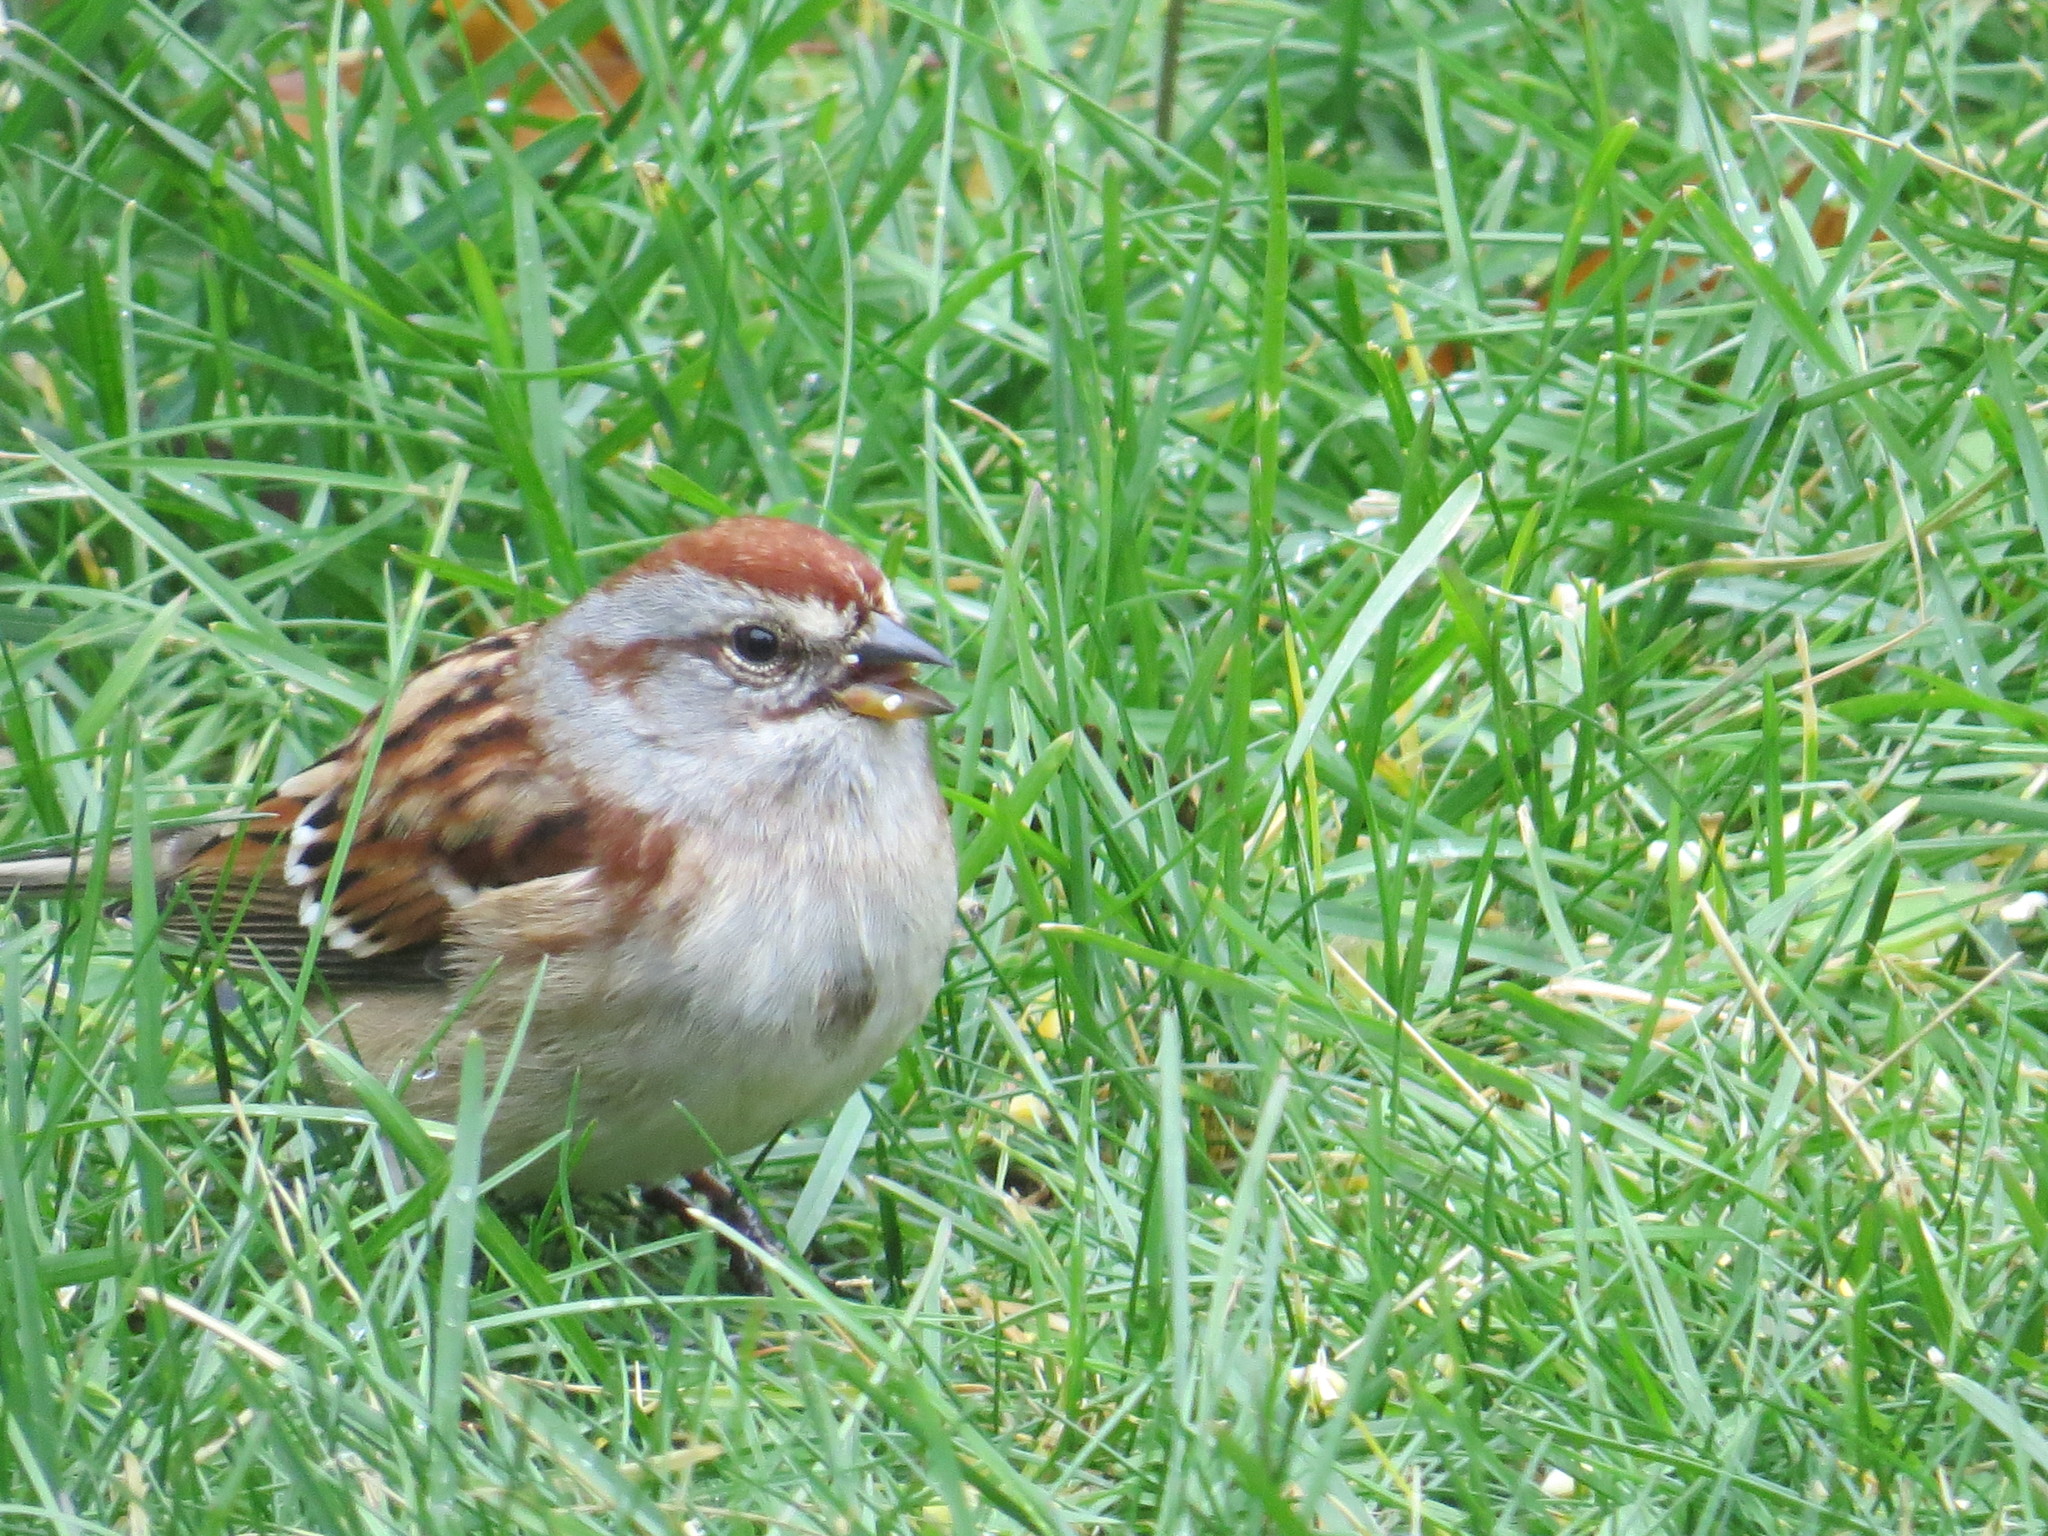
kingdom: Animalia
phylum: Chordata
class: Aves
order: Passeriformes
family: Passerellidae
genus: Spizelloides
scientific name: Spizelloides arborea
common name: American tree sparrow
